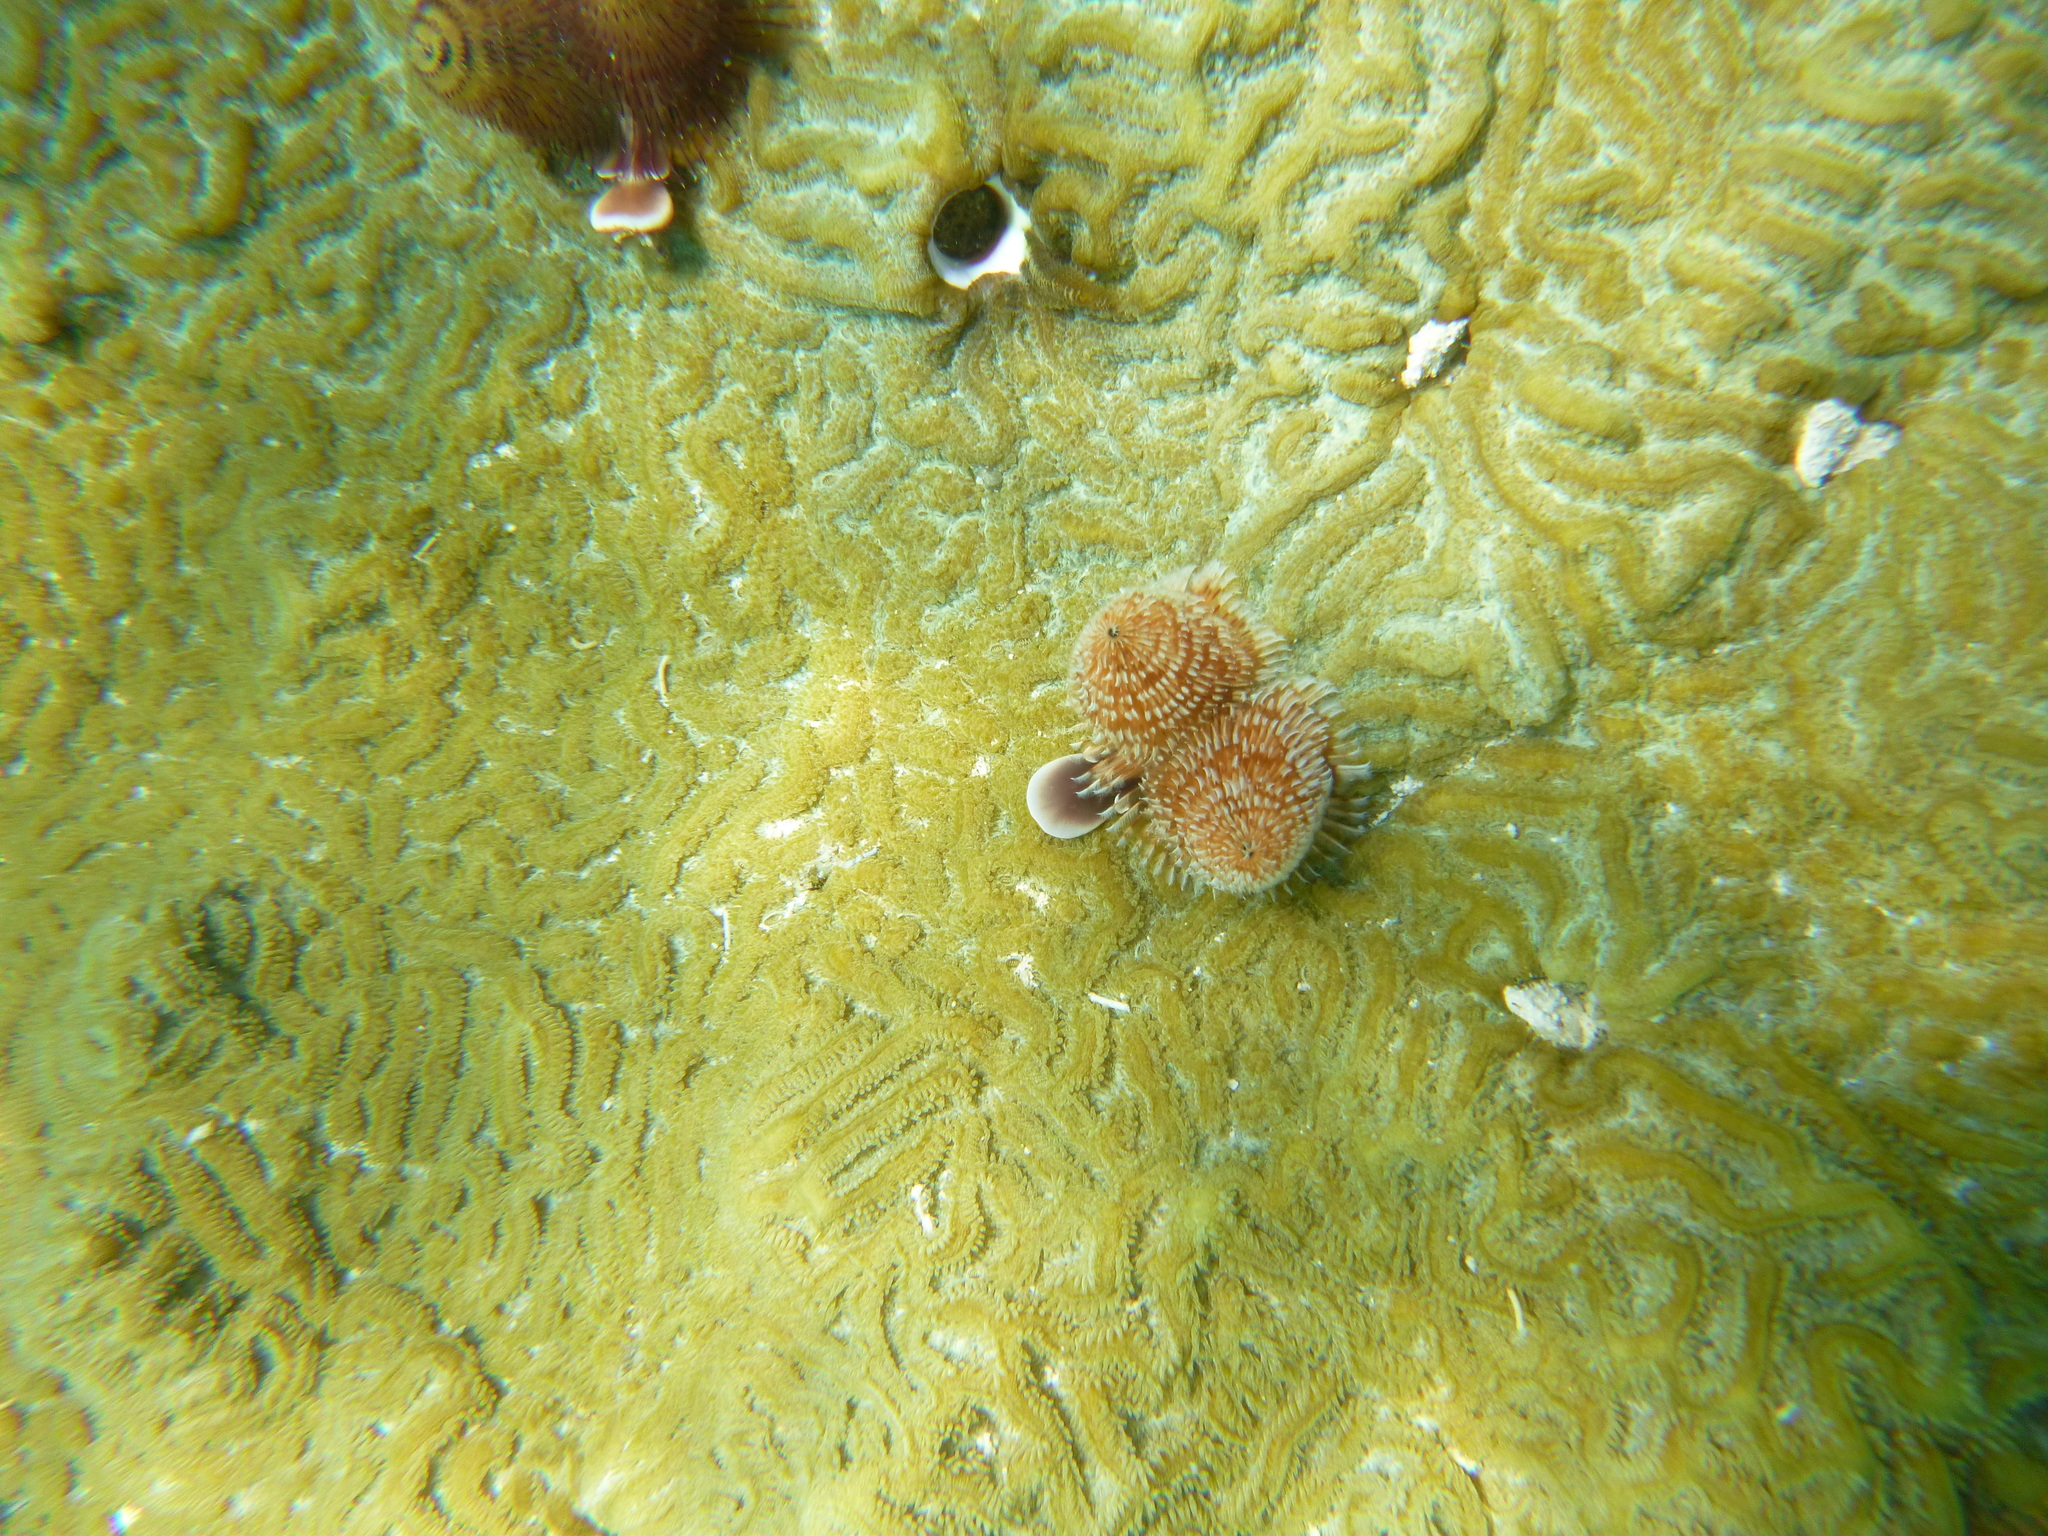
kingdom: Animalia
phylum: Cnidaria
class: Anthozoa
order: Scleractinia
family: Faviidae
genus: Pseudodiploria
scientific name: Pseudodiploria clivosa
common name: Knobby brain coral
